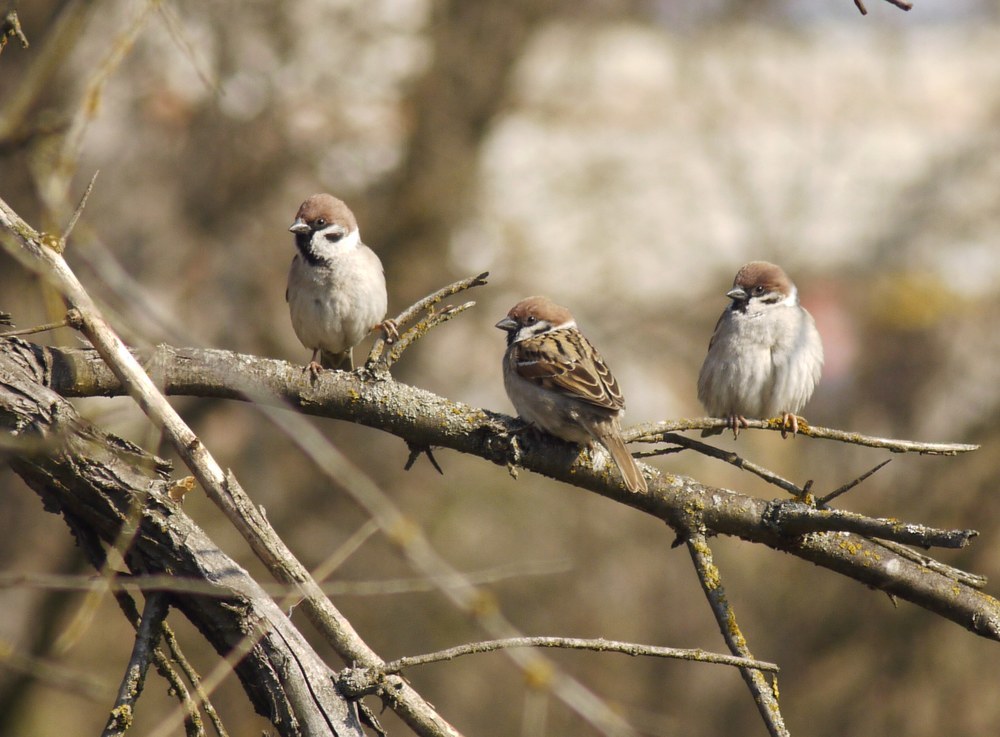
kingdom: Animalia
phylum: Chordata
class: Aves
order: Passeriformes
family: Passeridae
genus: Passer
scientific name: Passer montanus
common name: Eurasian tree sparrow
